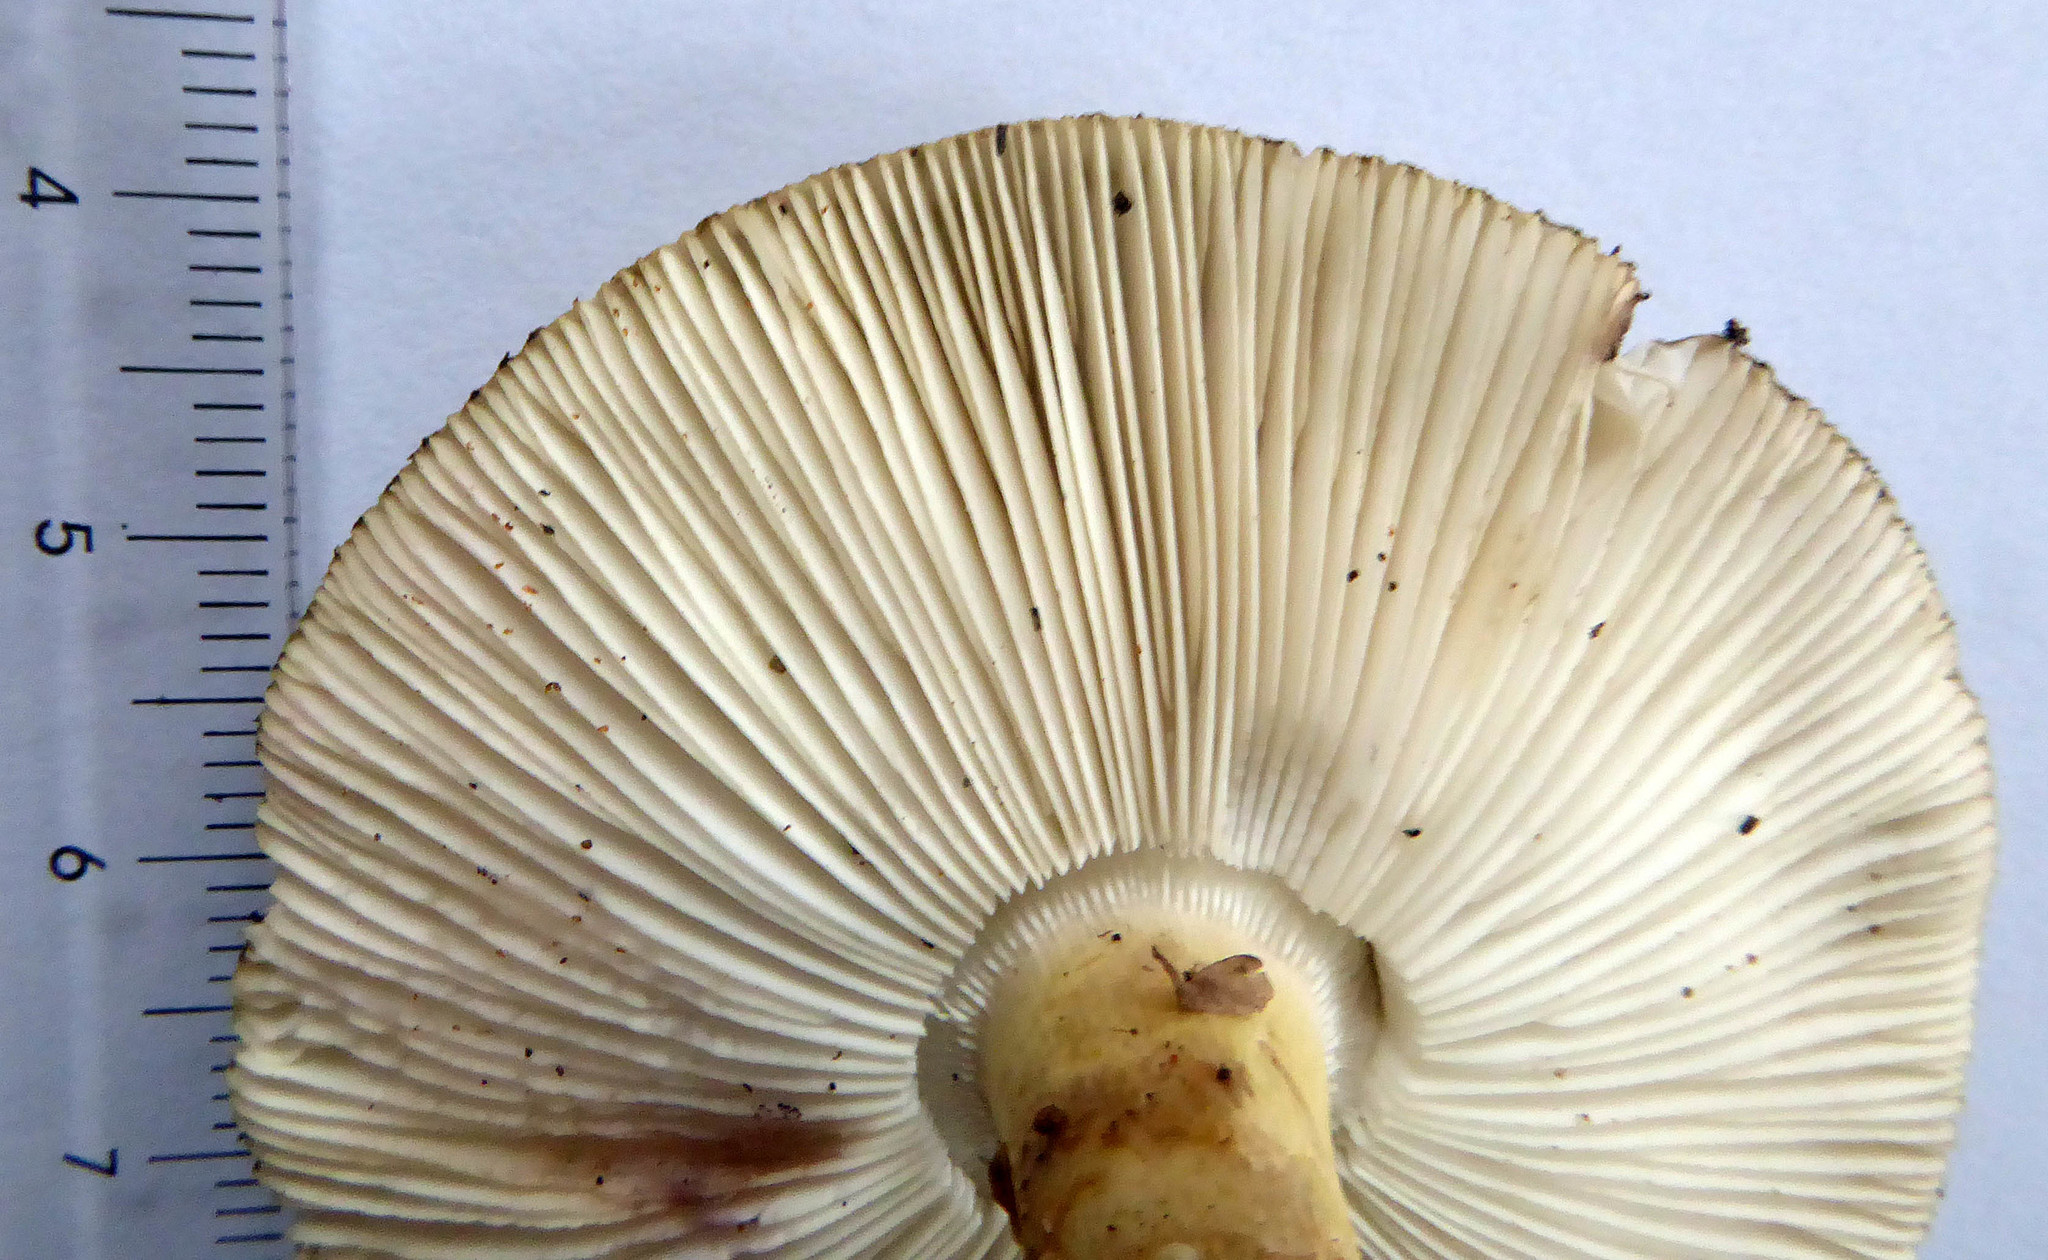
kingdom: Fungi
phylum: Basidiomycota
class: Agaricomycetes
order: Agaricales
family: Amanitaceae
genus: Amanita
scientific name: Amanita nothofagi
